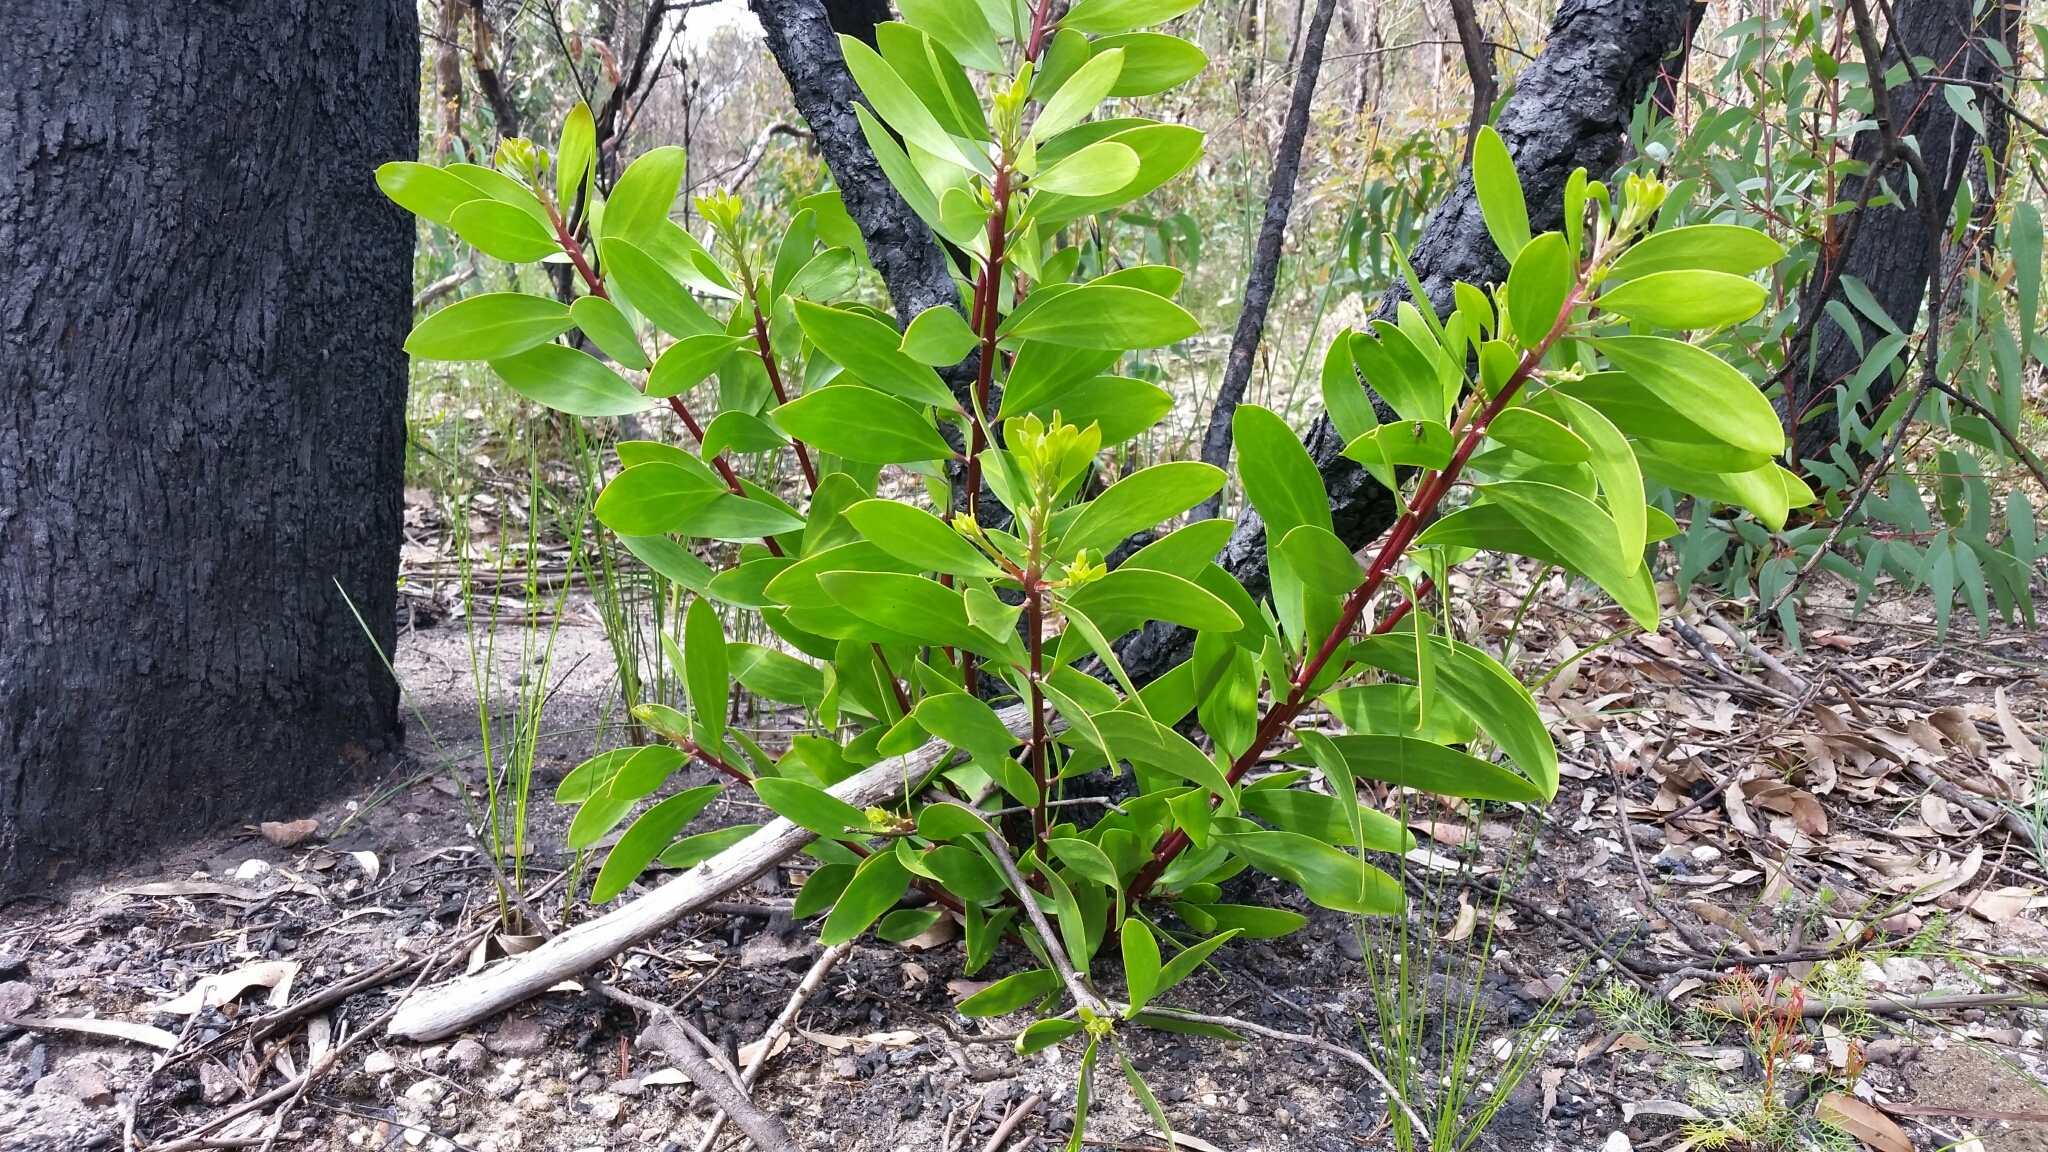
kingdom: Plantae
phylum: Tracheophyta
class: Magnoliopsida
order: Proteales
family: Proteaceae
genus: Persoonia
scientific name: Persoonia levis
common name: Smooth geebung
